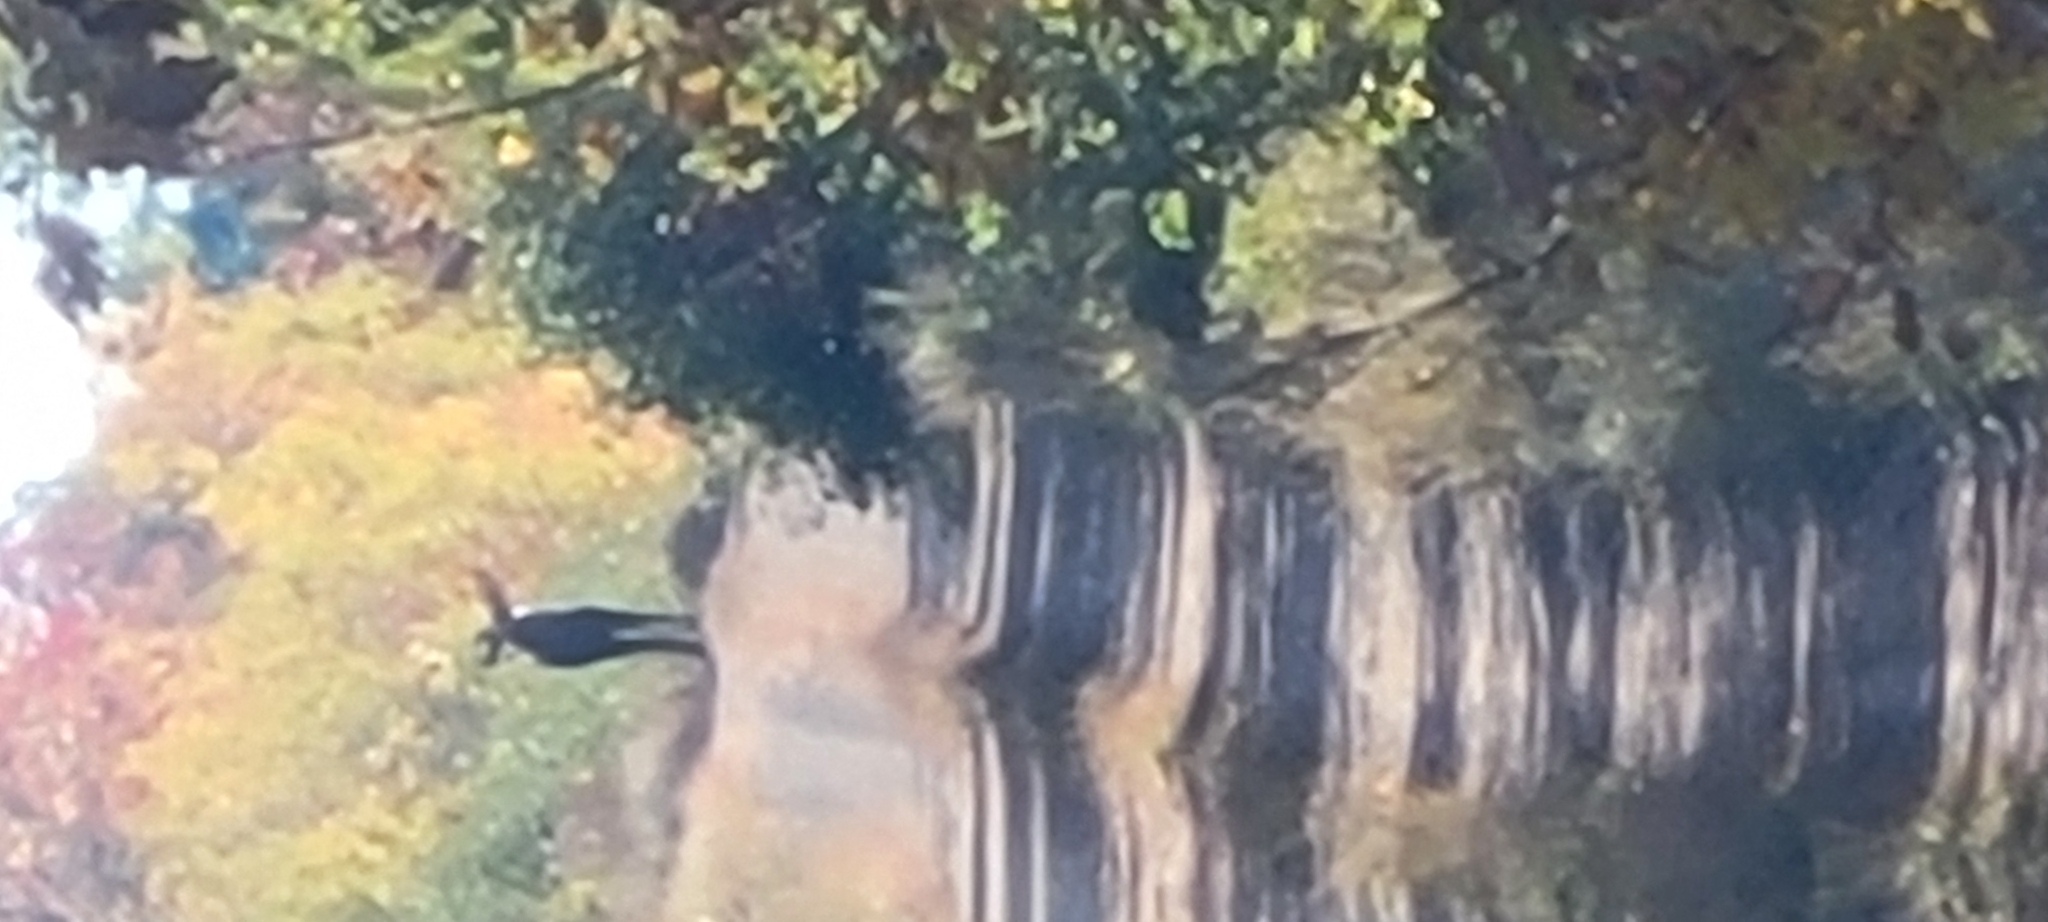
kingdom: Animalia
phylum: Chordata
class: Mammalia
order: Artiodactyla
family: Cervidae
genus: Alces
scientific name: Alces alces
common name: Moose
